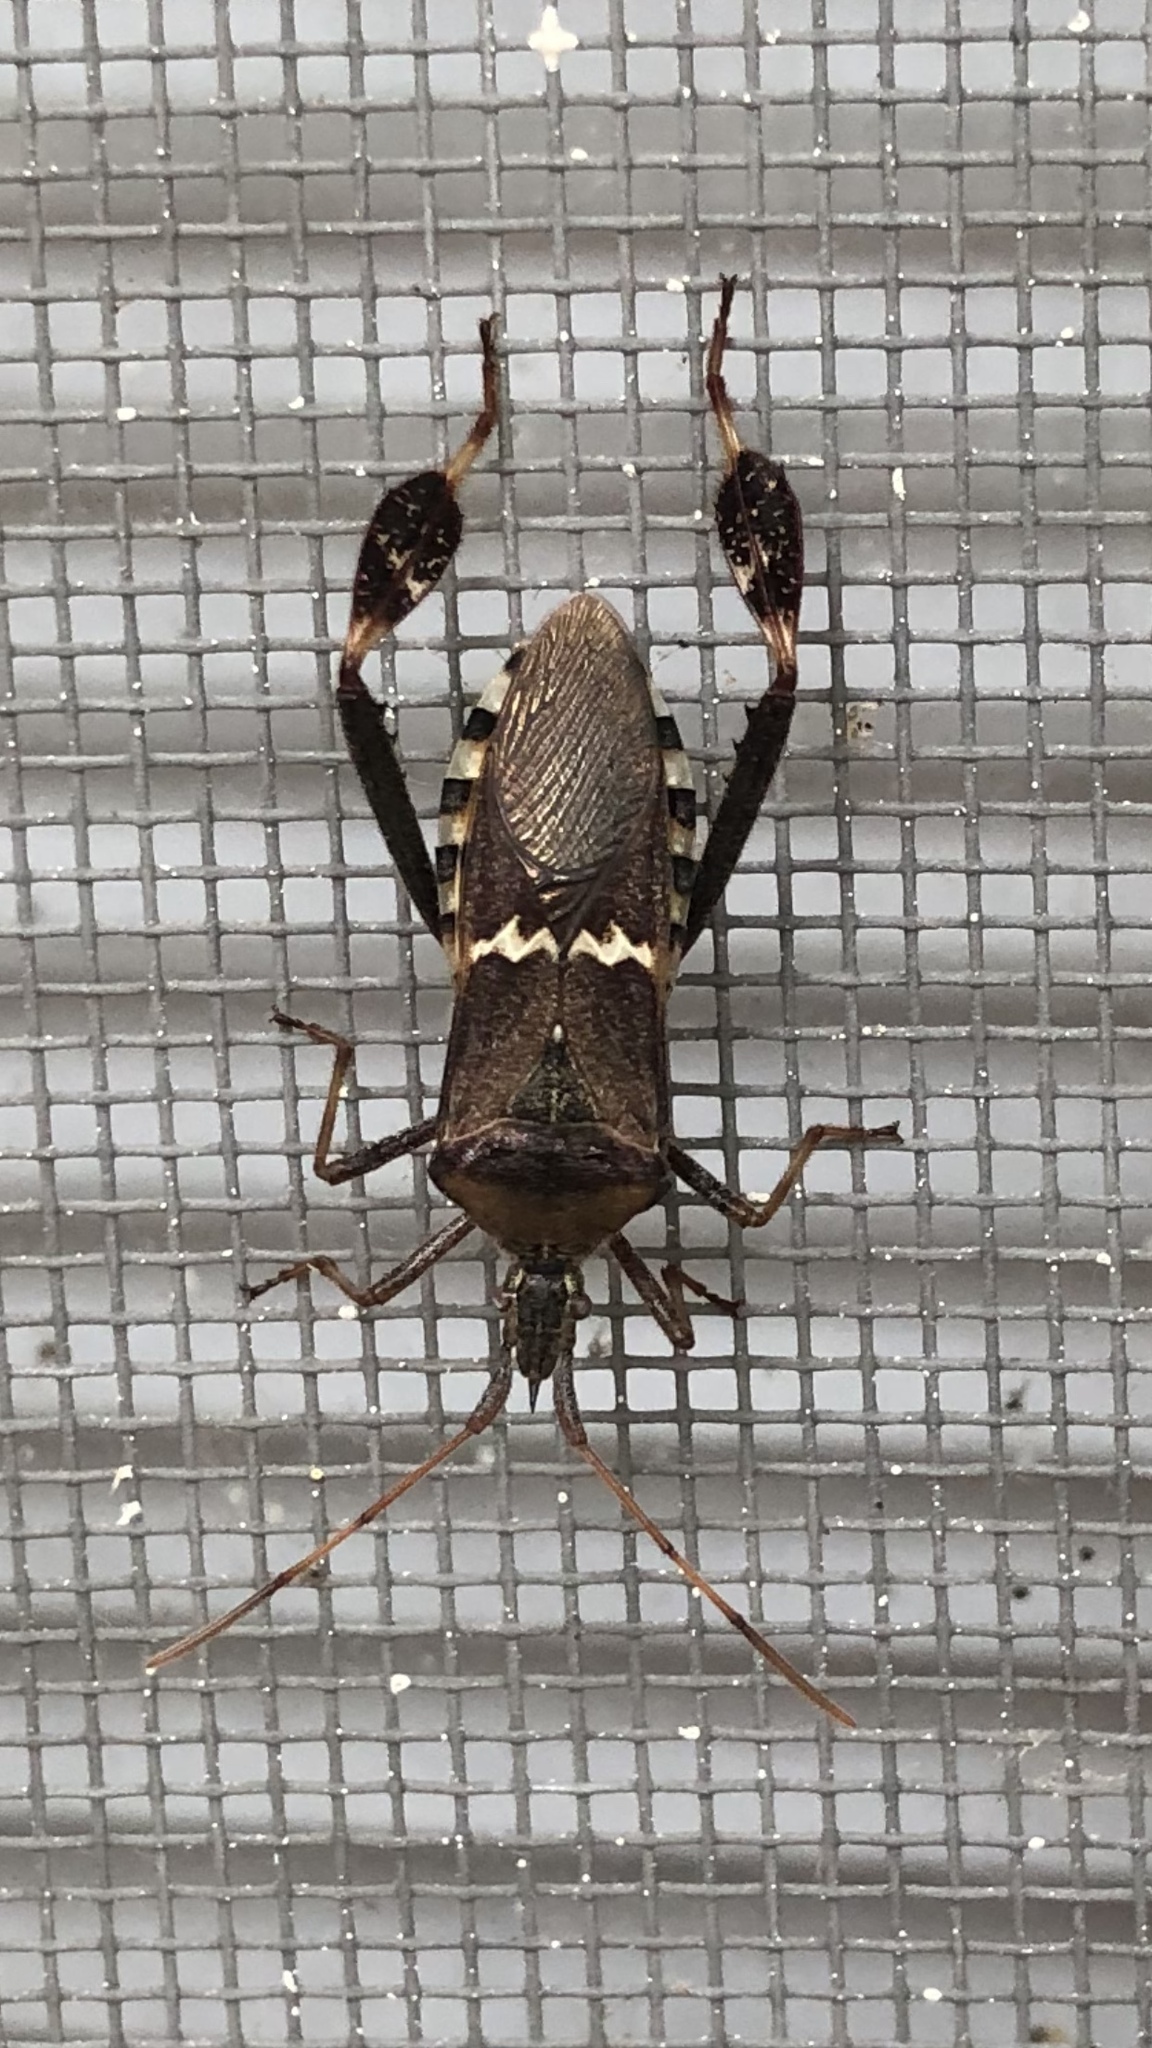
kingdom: Animalia
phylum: Arthropoda
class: Insecta
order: Hemiptera
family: Coreidae
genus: Leptoglossus
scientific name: Leptoglossus clypealis
